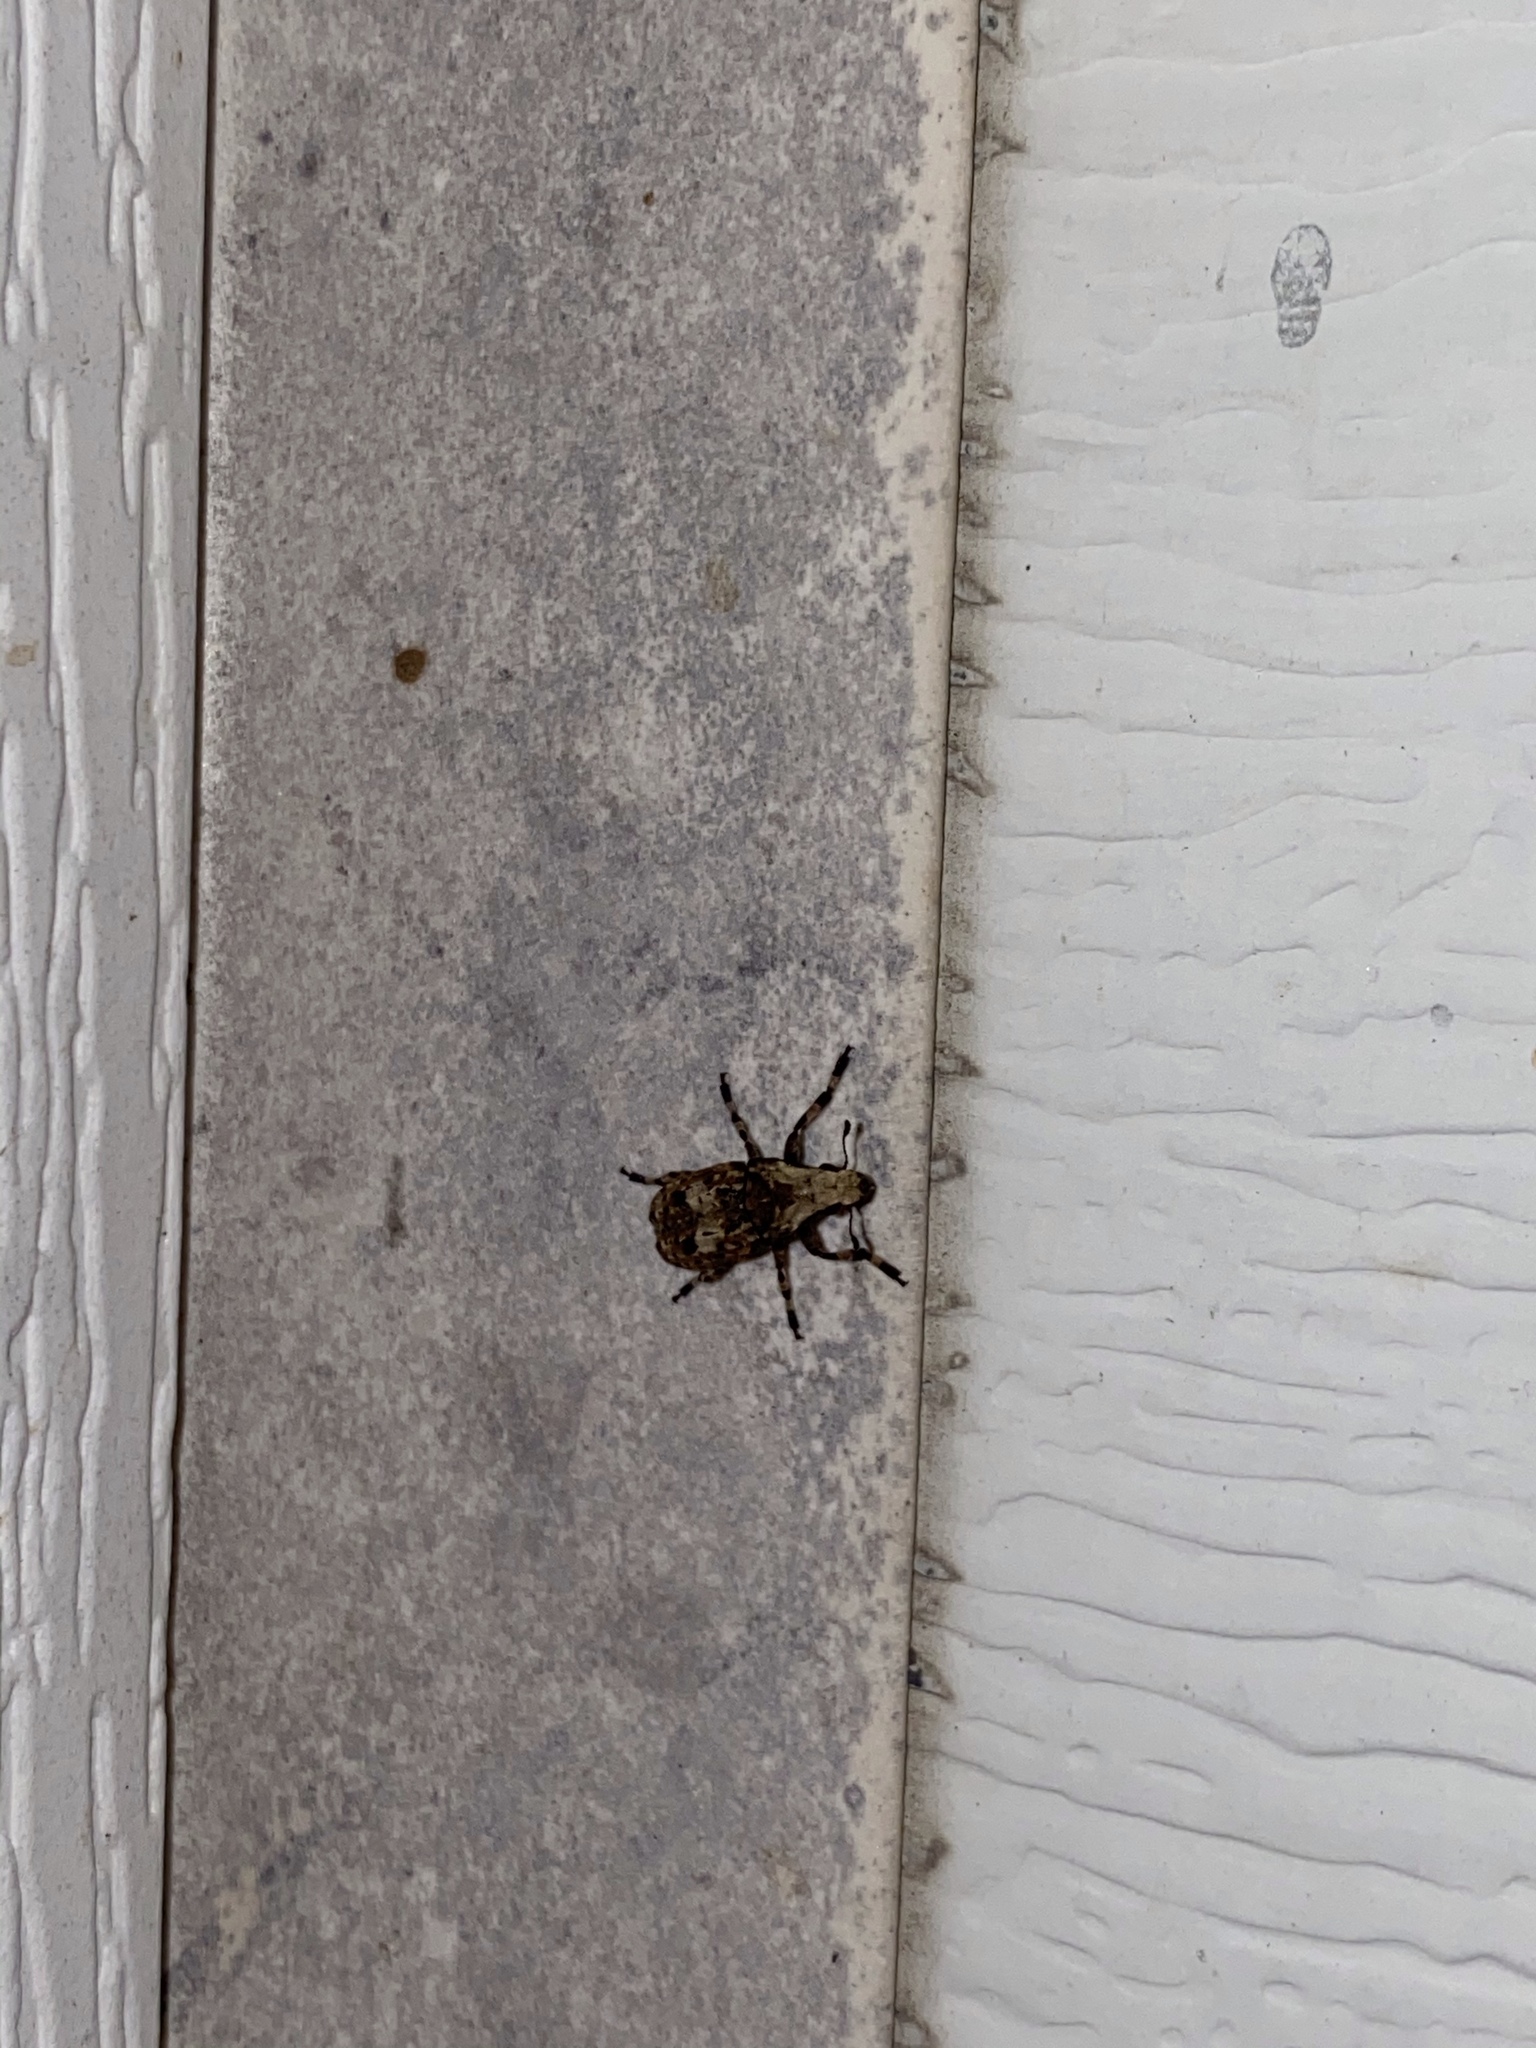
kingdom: Animalia
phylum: Arthropoda
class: Insecta
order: Coleoptera
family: Anthribidae
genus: Euparius
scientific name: Euparius marmoreus
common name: Marbled fungus weevil
